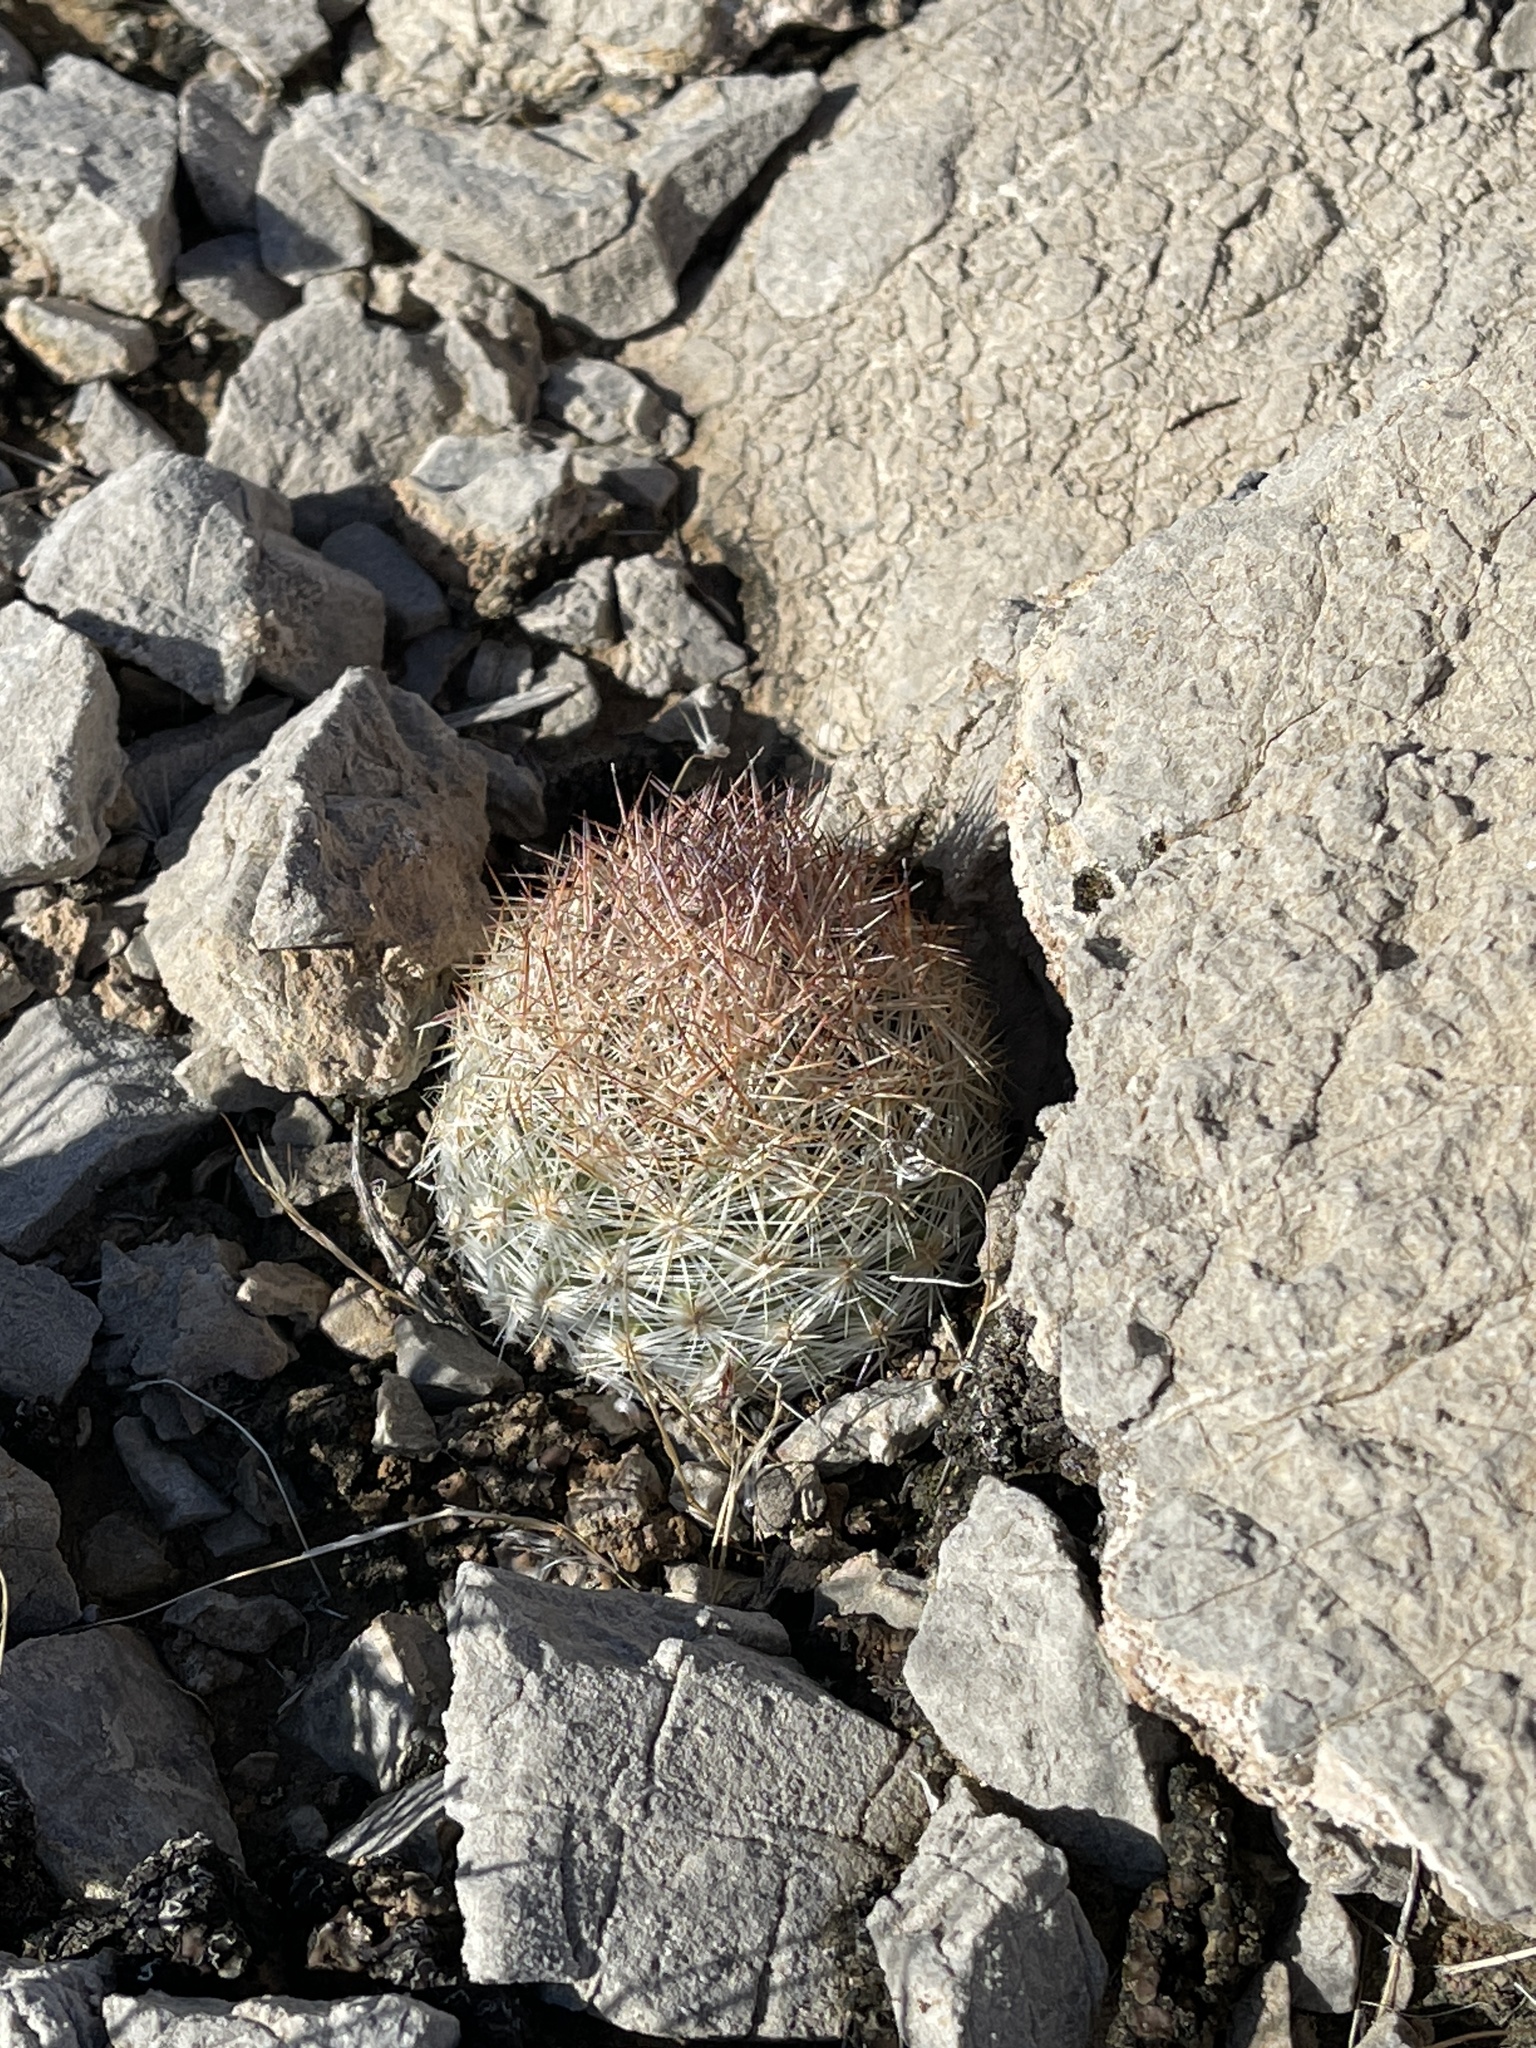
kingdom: Plantae
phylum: Tracheophyta
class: Magnoliopsida
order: Caryophyllales
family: Cactaceae
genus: Pelecyphora
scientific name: Pelecyphora dasyacantha
